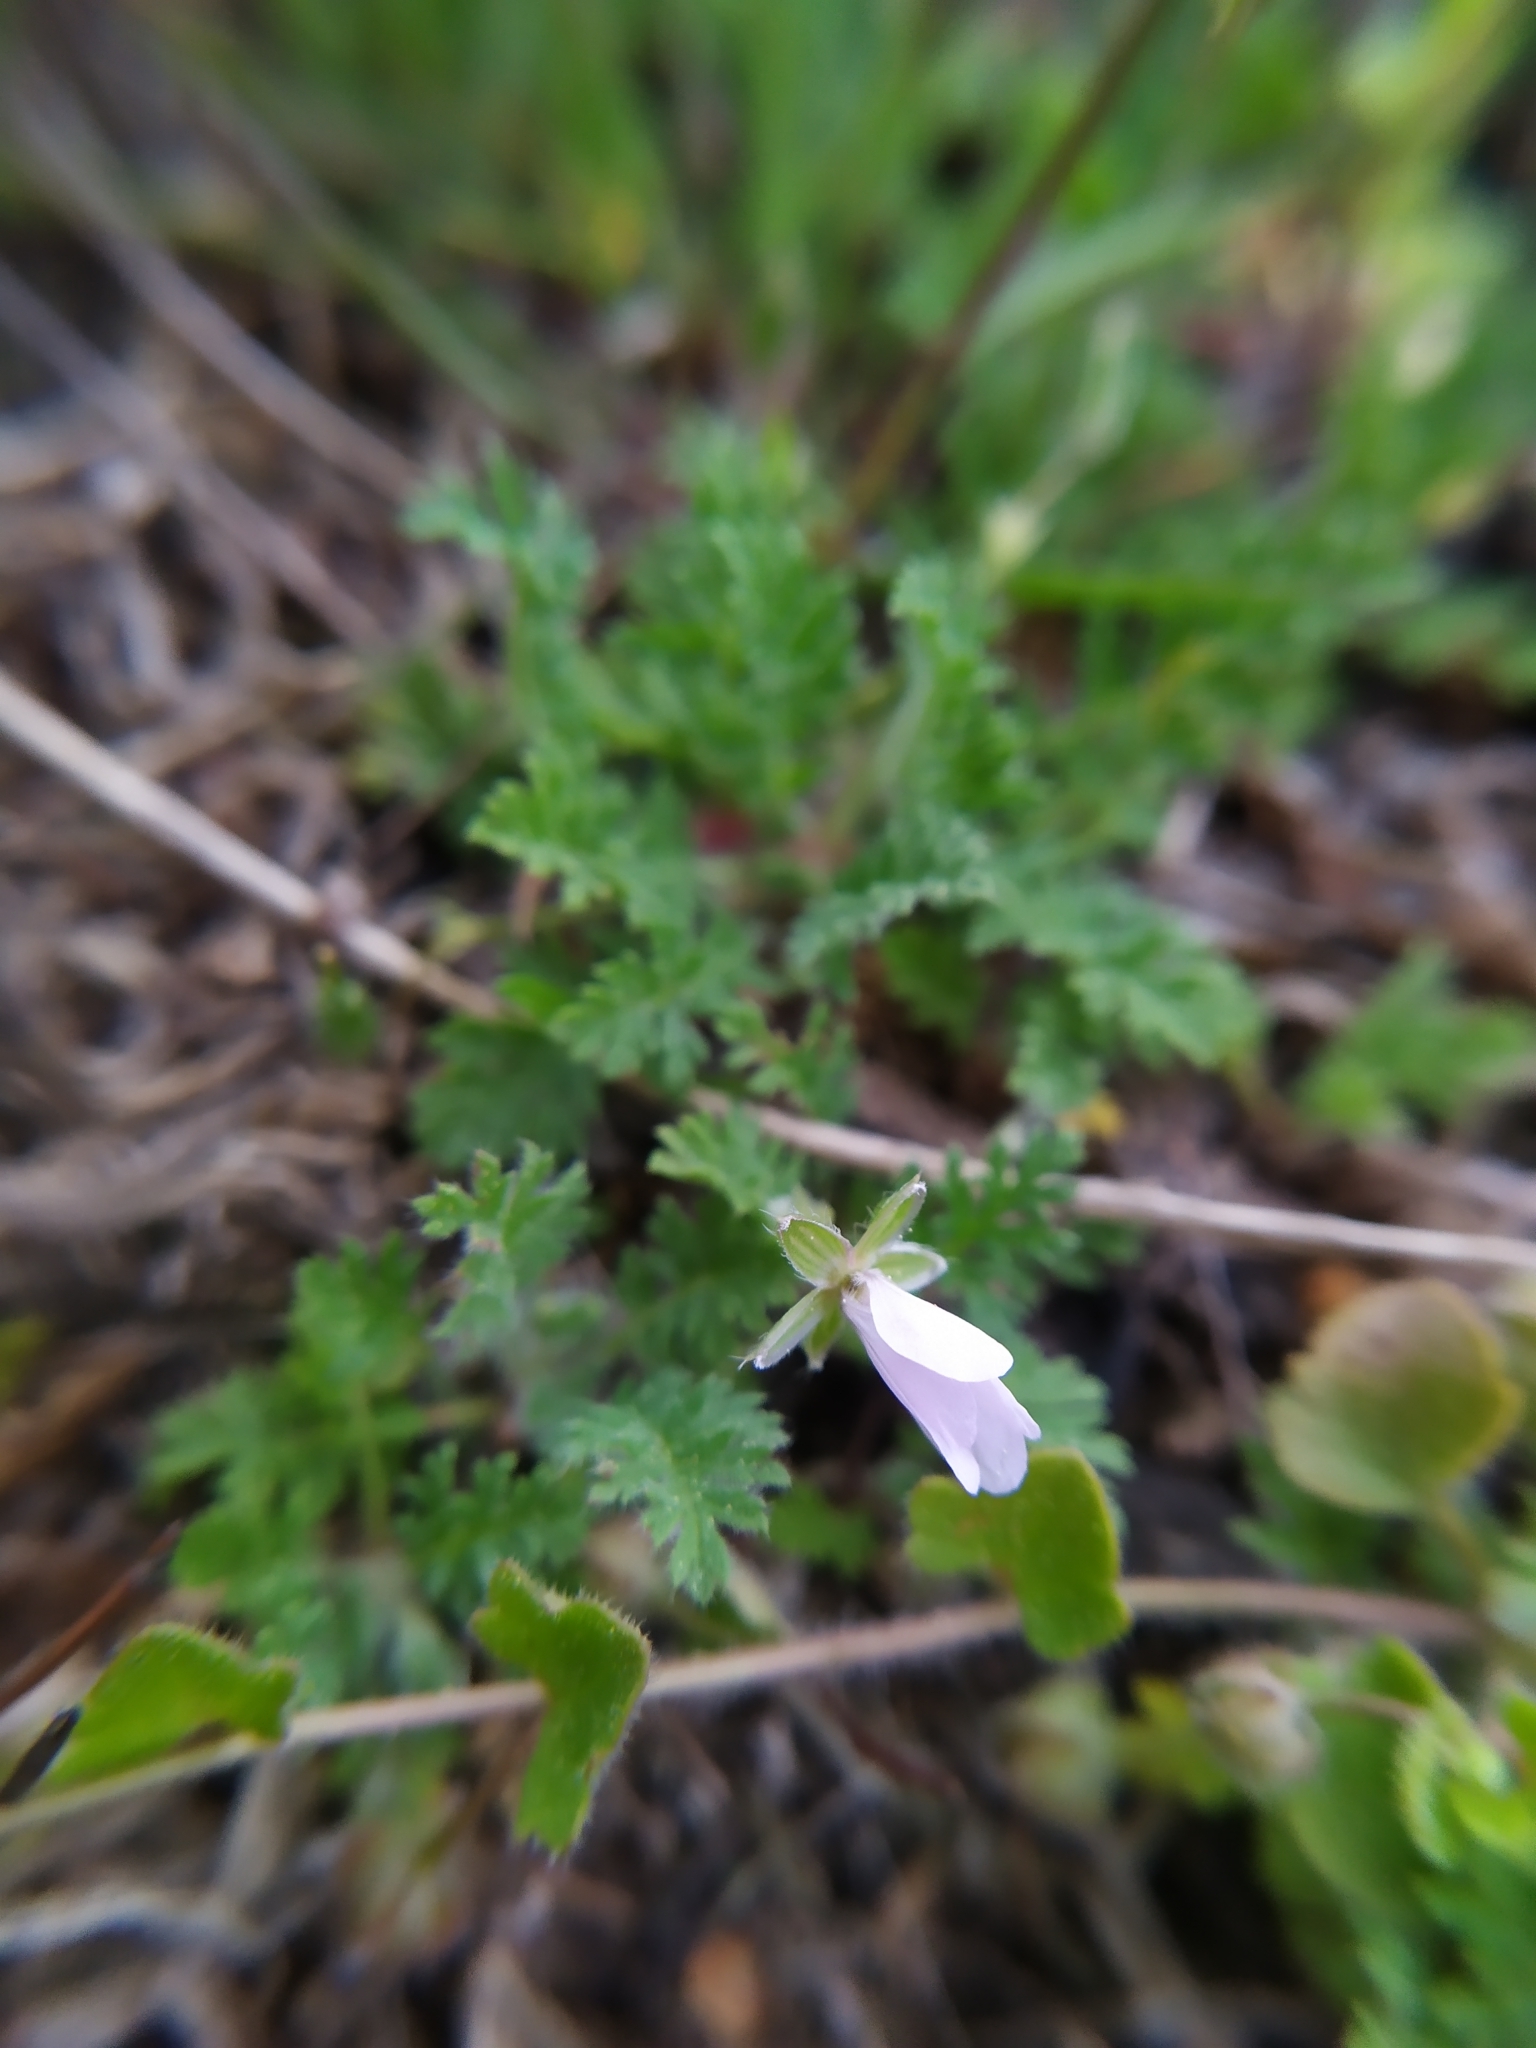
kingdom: Plantae
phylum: Tracheophyta
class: Magnoliopsida
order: Geraniales
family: Geraniaceae
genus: Erodium
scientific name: Erodium cicutarium
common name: Common stork's-bill
